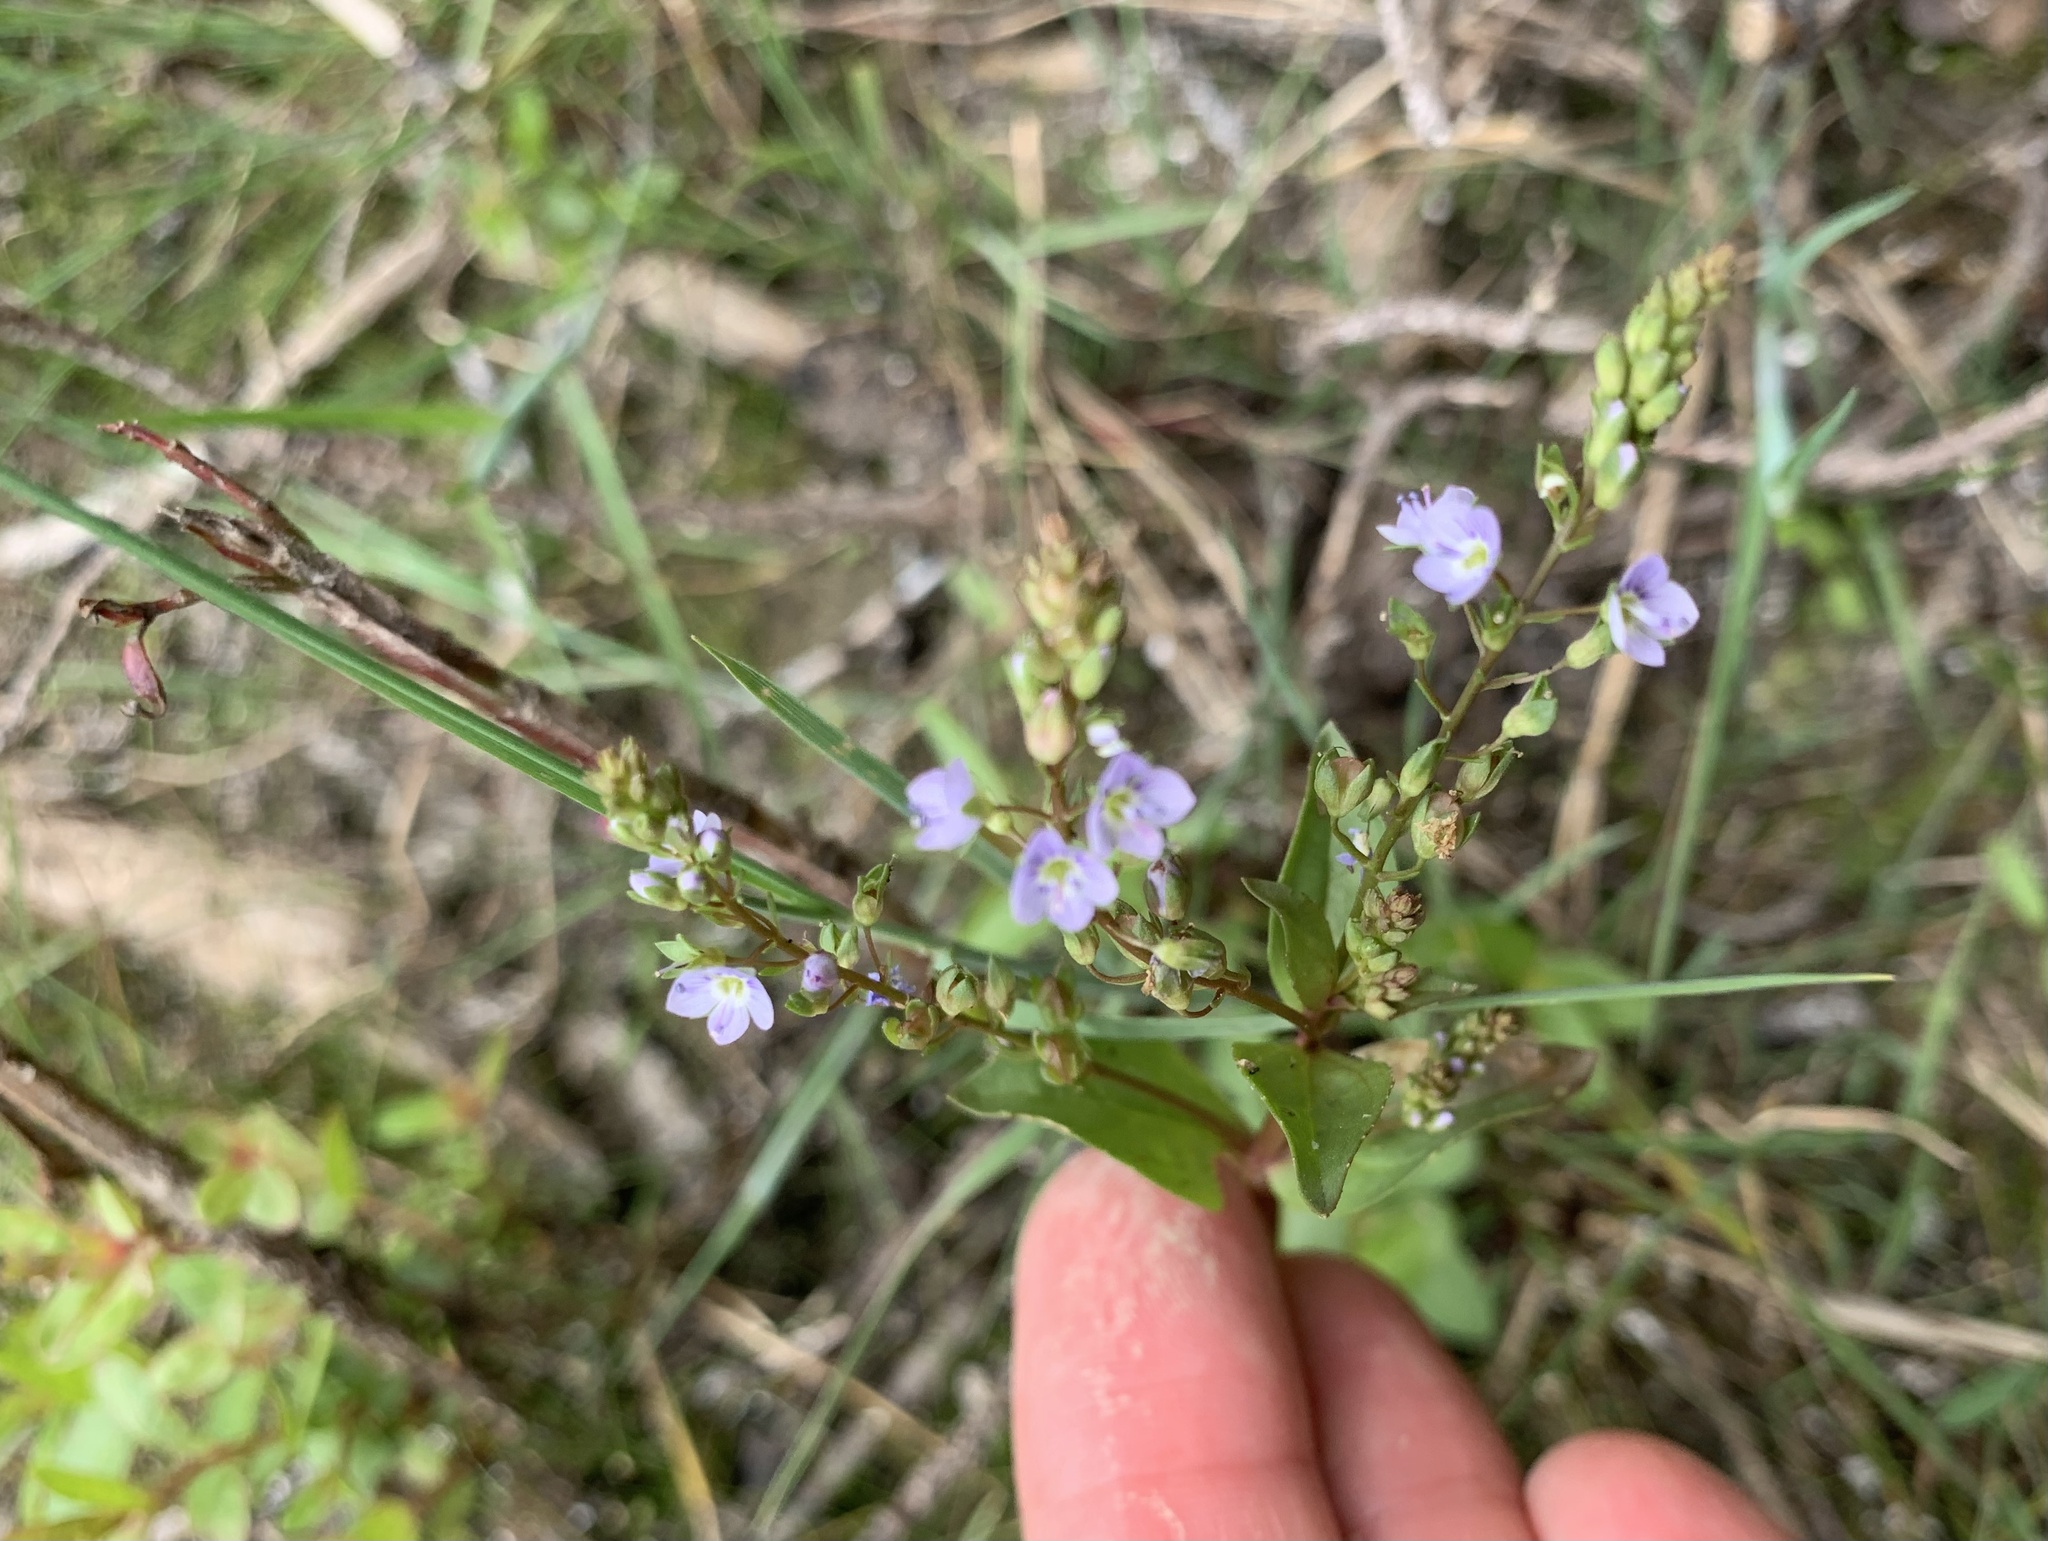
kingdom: Plantae
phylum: Tracheophyta
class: Magnoliopsida
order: Lamiales
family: Plantaginaceae
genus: Veronica
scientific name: Veronica anagallis-aquatica
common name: Water speedwell
